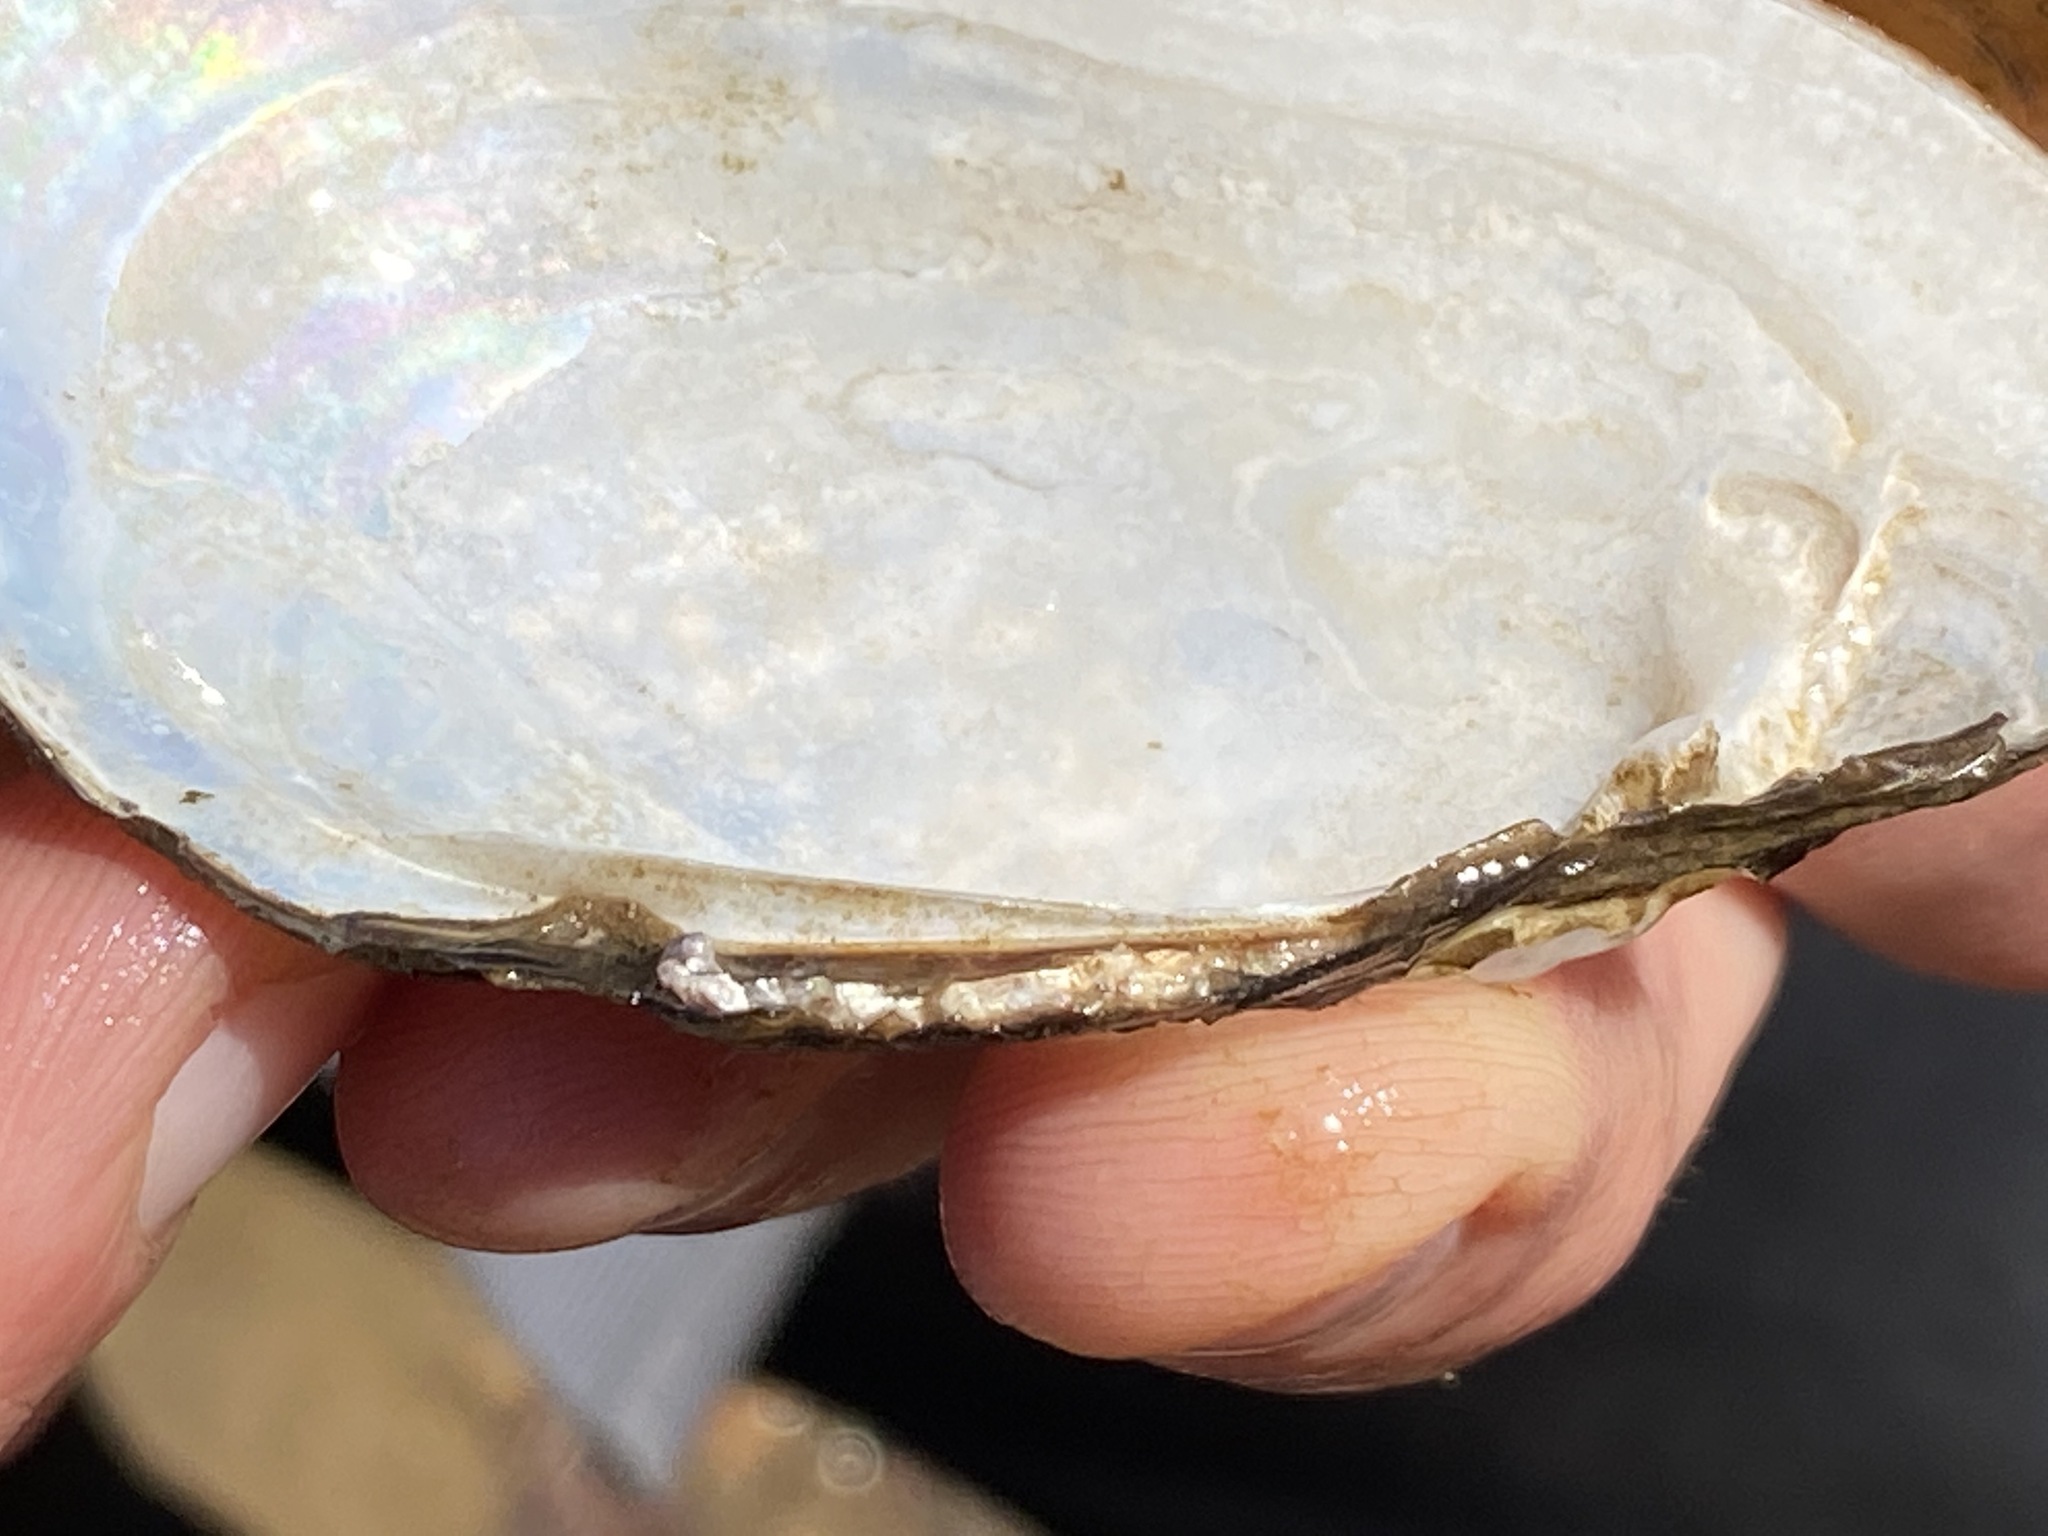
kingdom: Animalia
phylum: Mollusca
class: Bivalvia
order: Unionida
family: Unionidae
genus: Lampsilis
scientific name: Lampsilis siliquoidea
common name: Fatmucket
